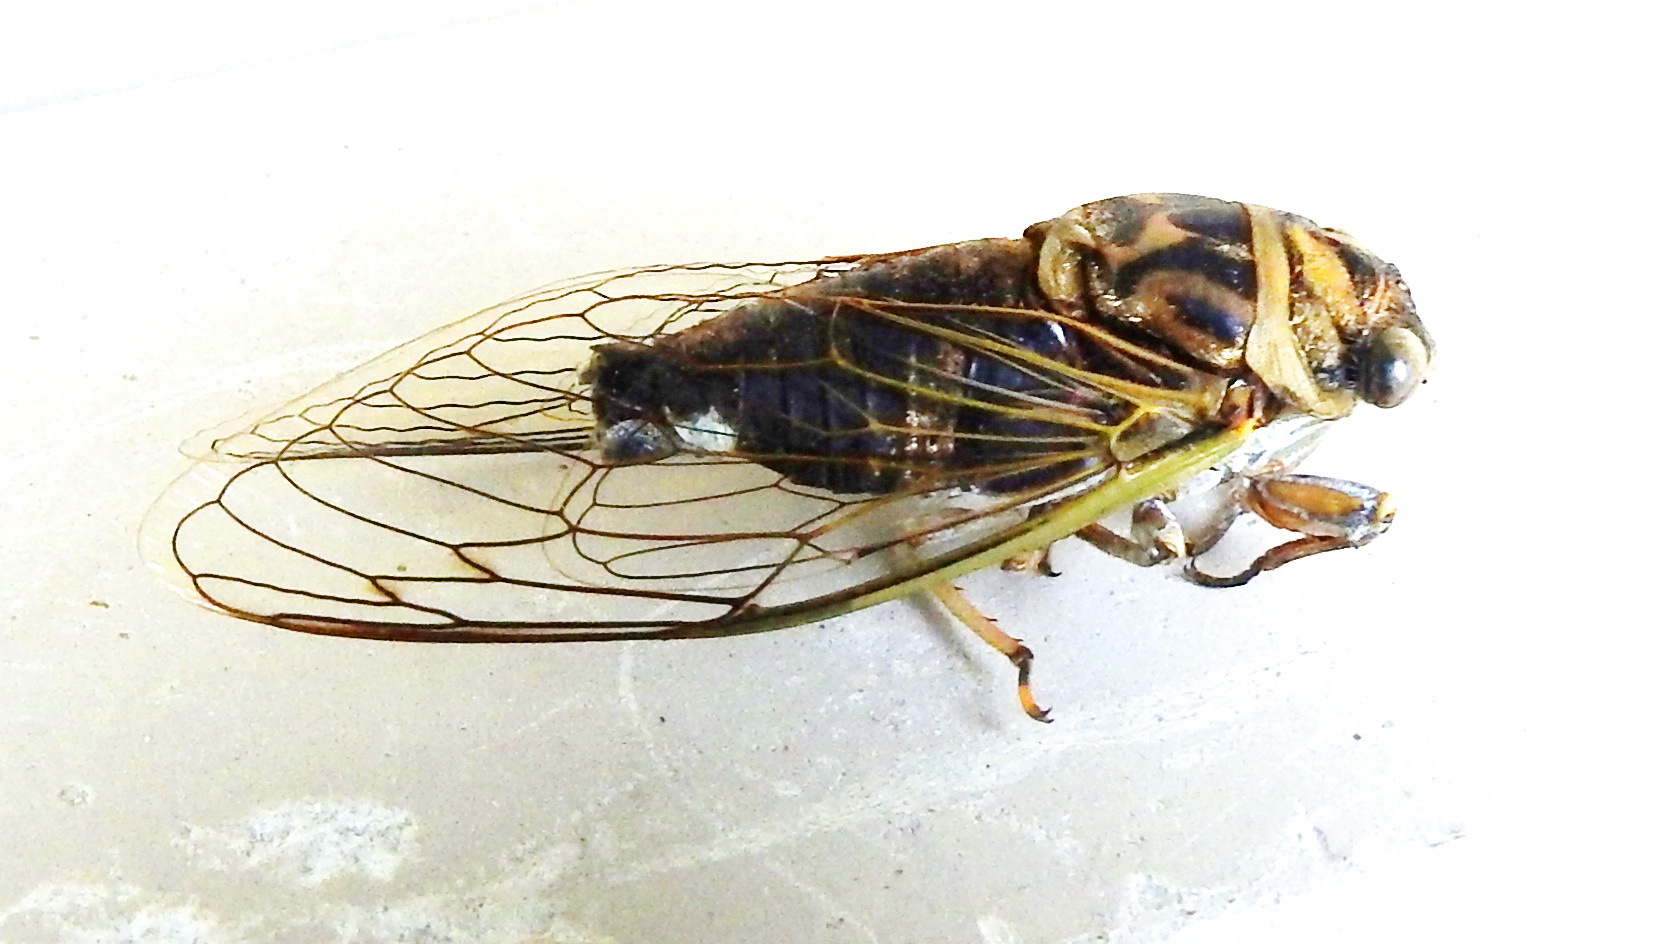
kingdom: Animalia
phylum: Arthropoda
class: Insecta
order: Hemiptera
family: Cicadidae
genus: Neotibicen
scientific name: Neotibicen canicularis
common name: God-day cicada
